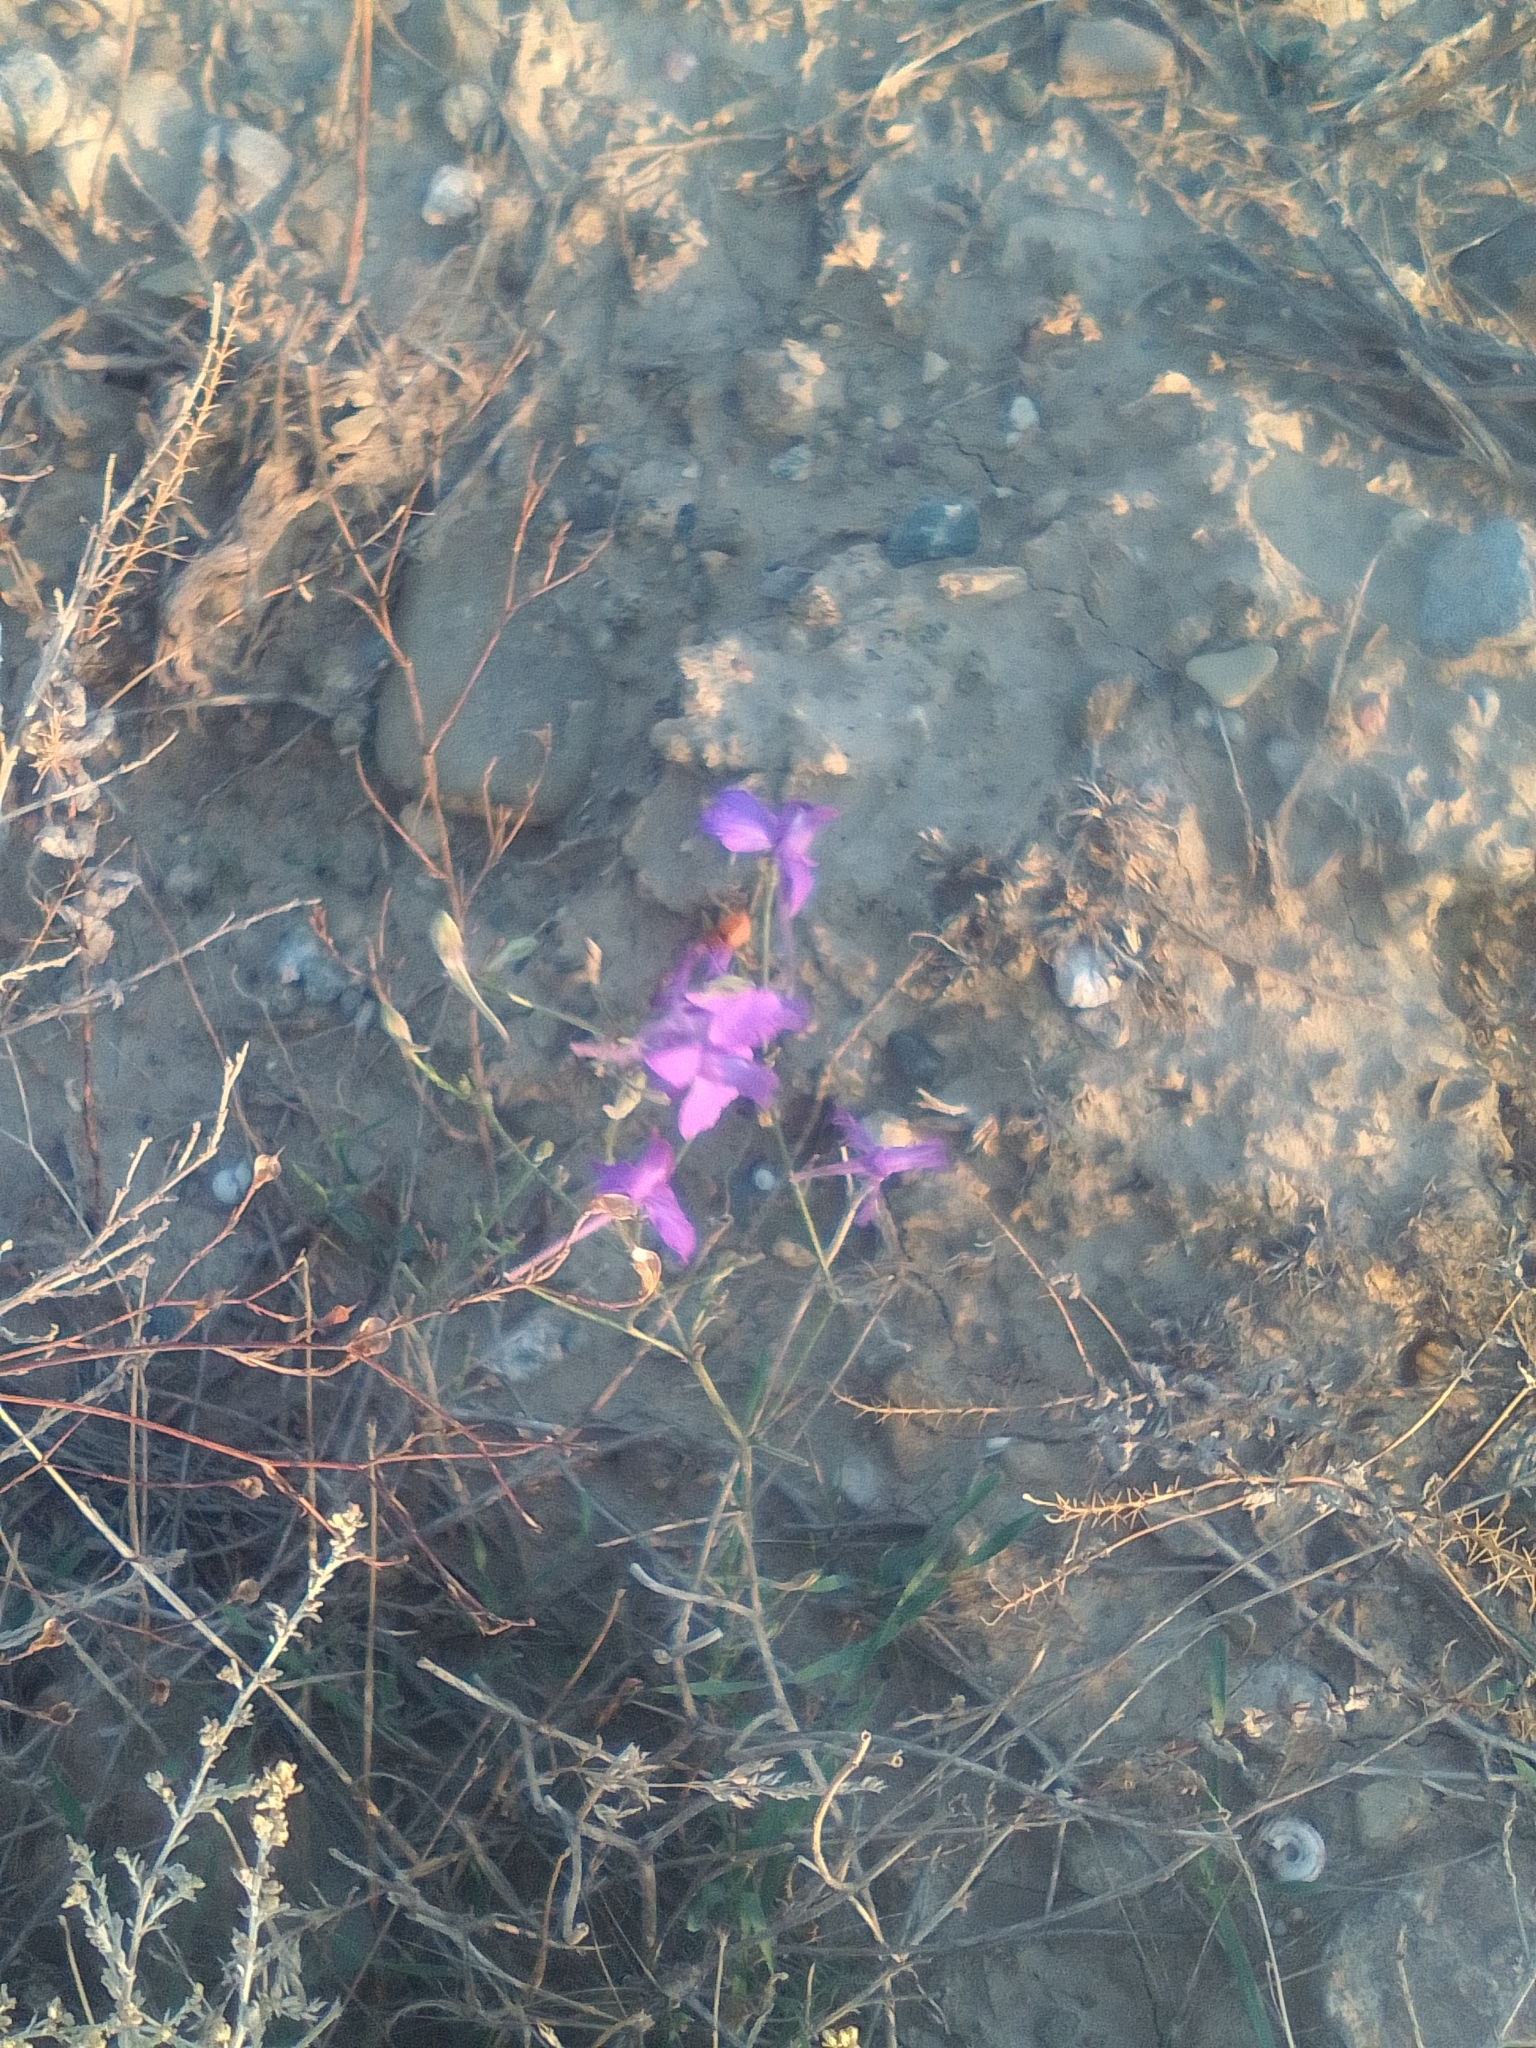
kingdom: Plantae
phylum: Tracheophyta
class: Magnoliopsida
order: Ranunculales
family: Ranunculaceae
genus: Delphinium
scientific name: Delphinium consolida
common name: Branching larkspur
